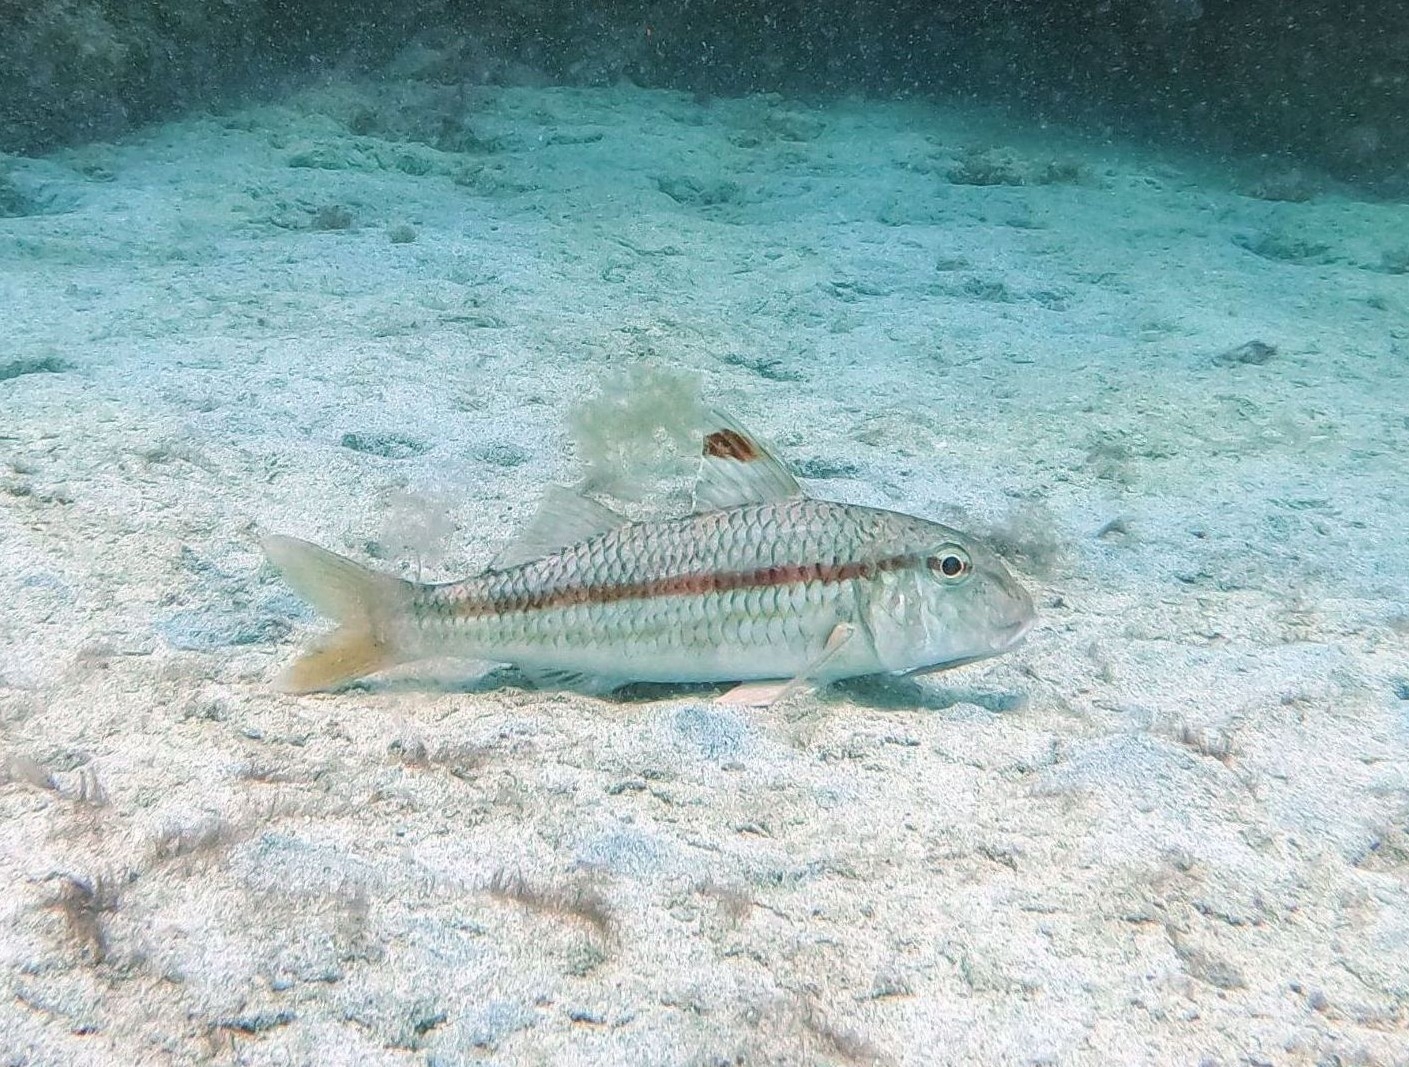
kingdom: Animalia
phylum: Chordata
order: Perciformes
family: Mullidae
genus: Mullus
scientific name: Mullus surmuletus
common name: Red mullet
